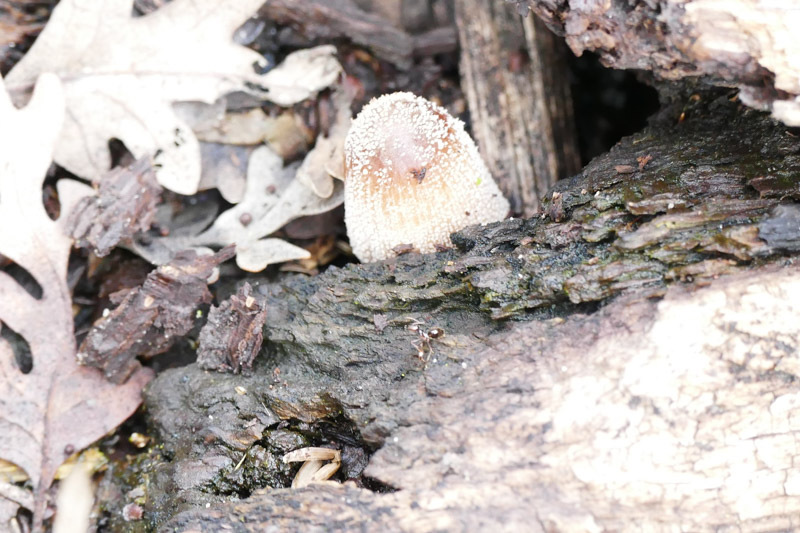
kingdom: Fungi
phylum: Basidiomycota
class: Agaricomycetes
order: Agaricales
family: Psathyrellaceae
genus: Coprinellus
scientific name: Coprinellus micaceus
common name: Glistening ink-cap
